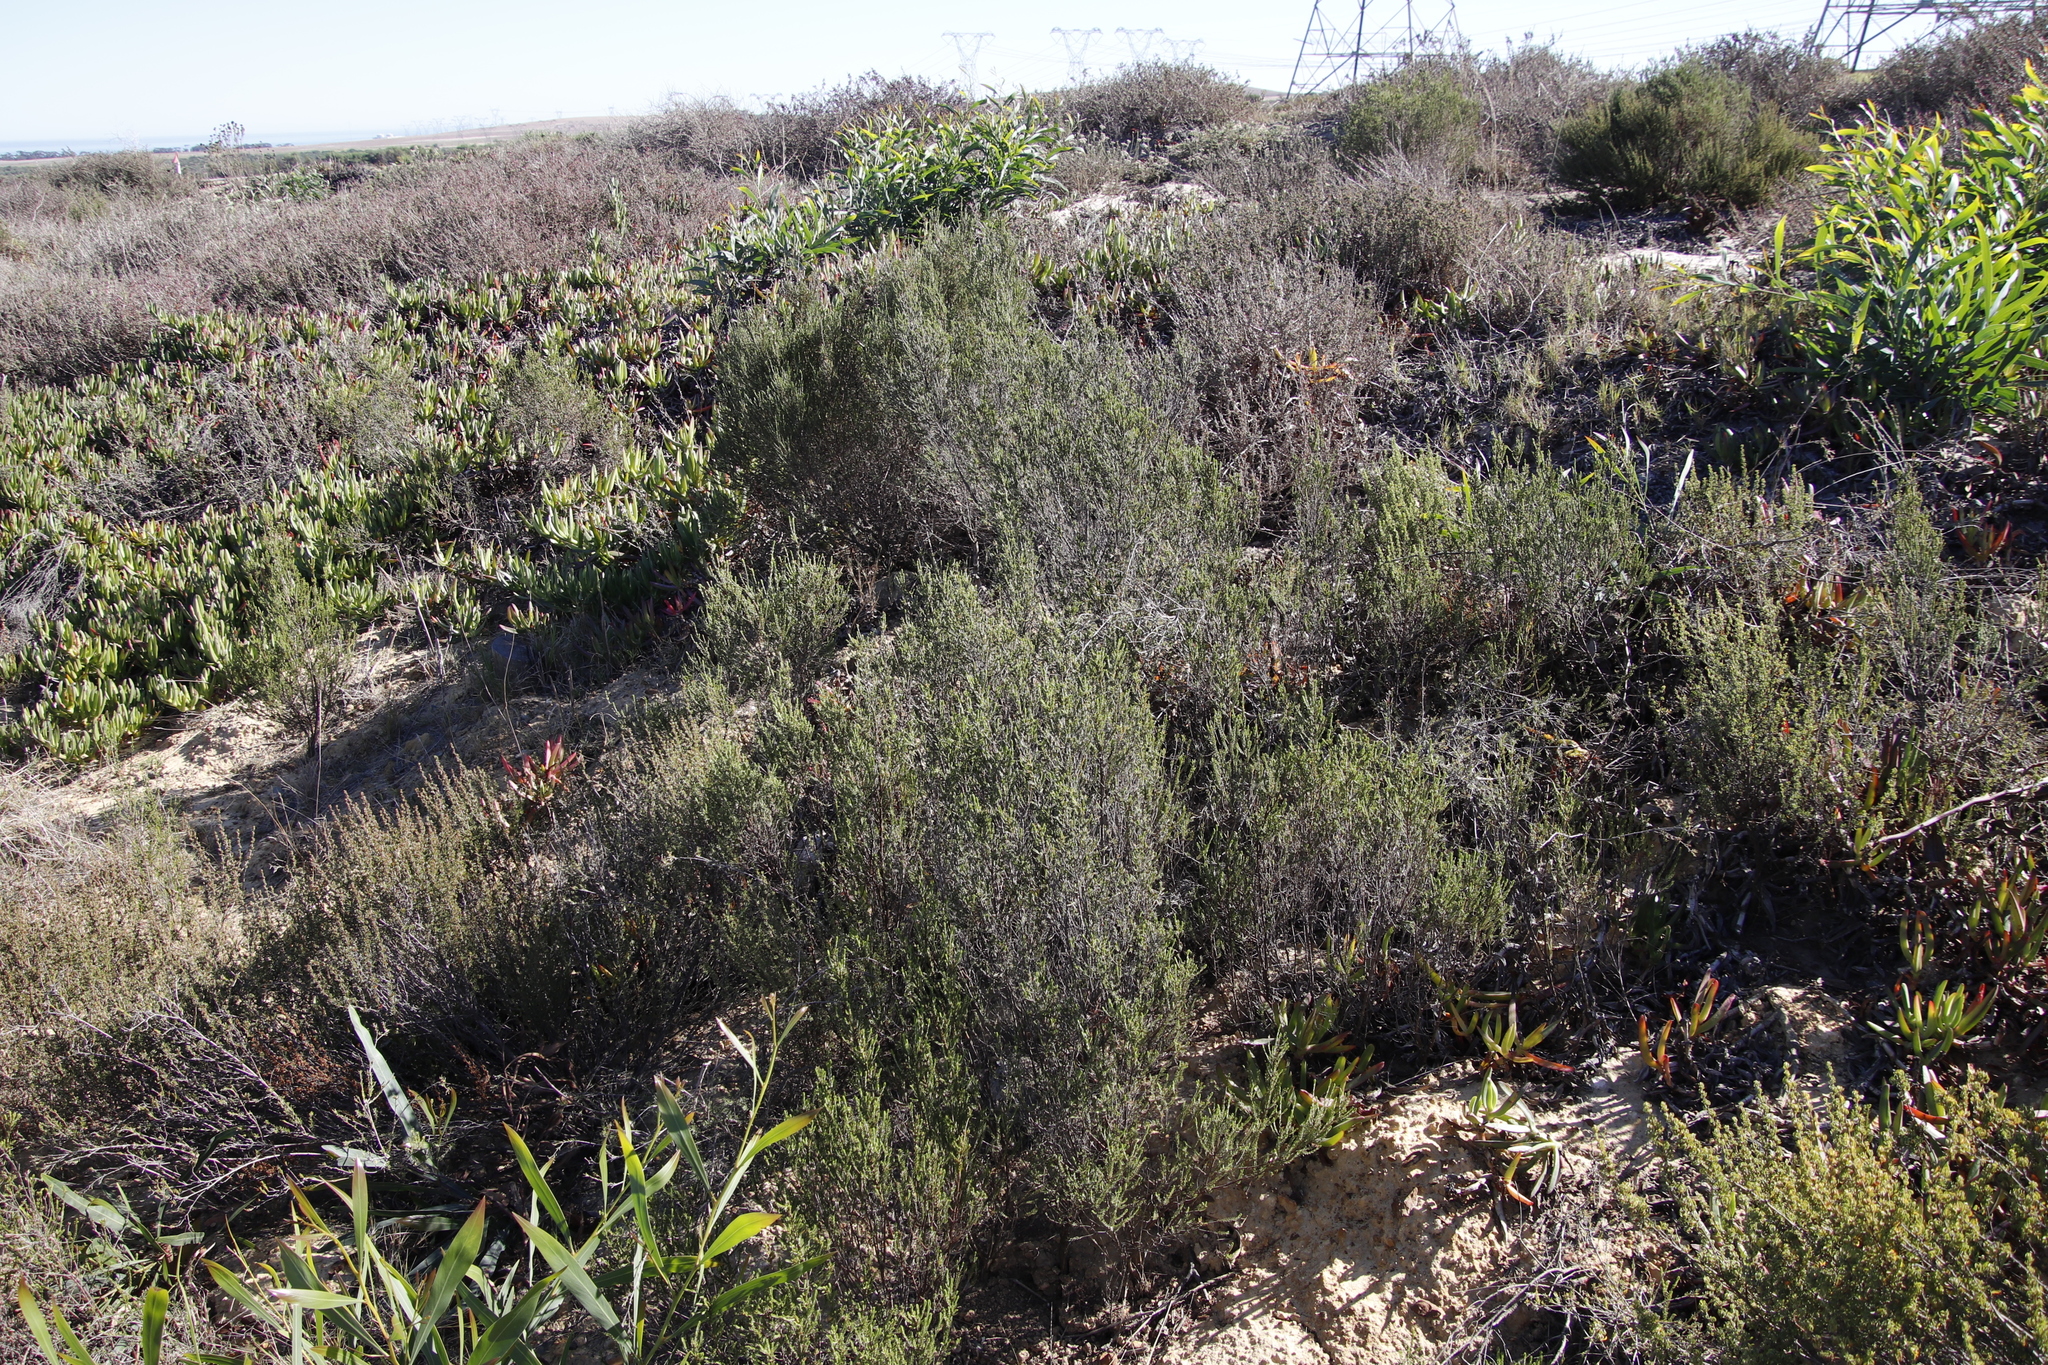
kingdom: Plantae
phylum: Tracheophyta
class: Magnoliopsida
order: Malvales
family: Thymelaeaceae
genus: Passerina
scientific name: Passerina corymbosa
